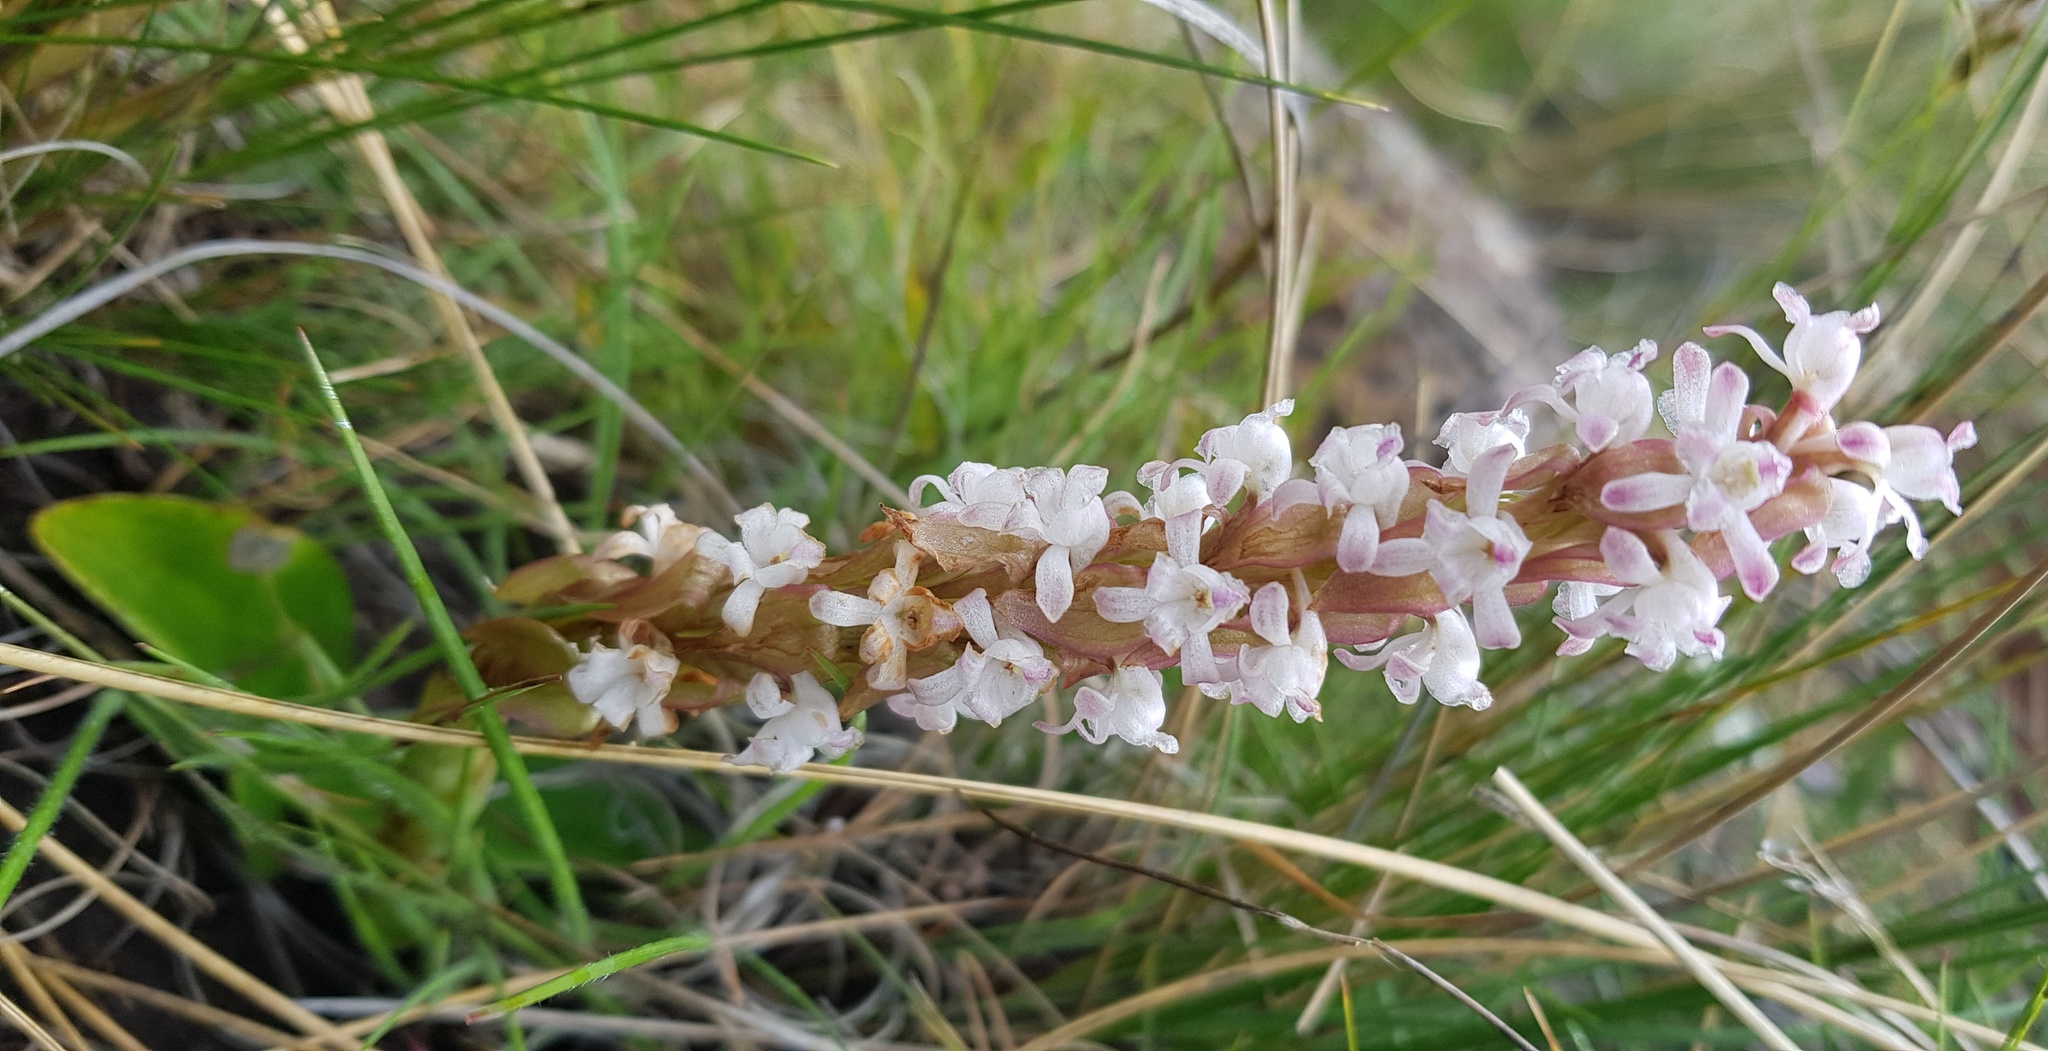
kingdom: Plantae
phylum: Tracheophyta
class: Liliopsida
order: Asparagales
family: Orchidaceae
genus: Satyrium
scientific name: Satyrium neglectum
